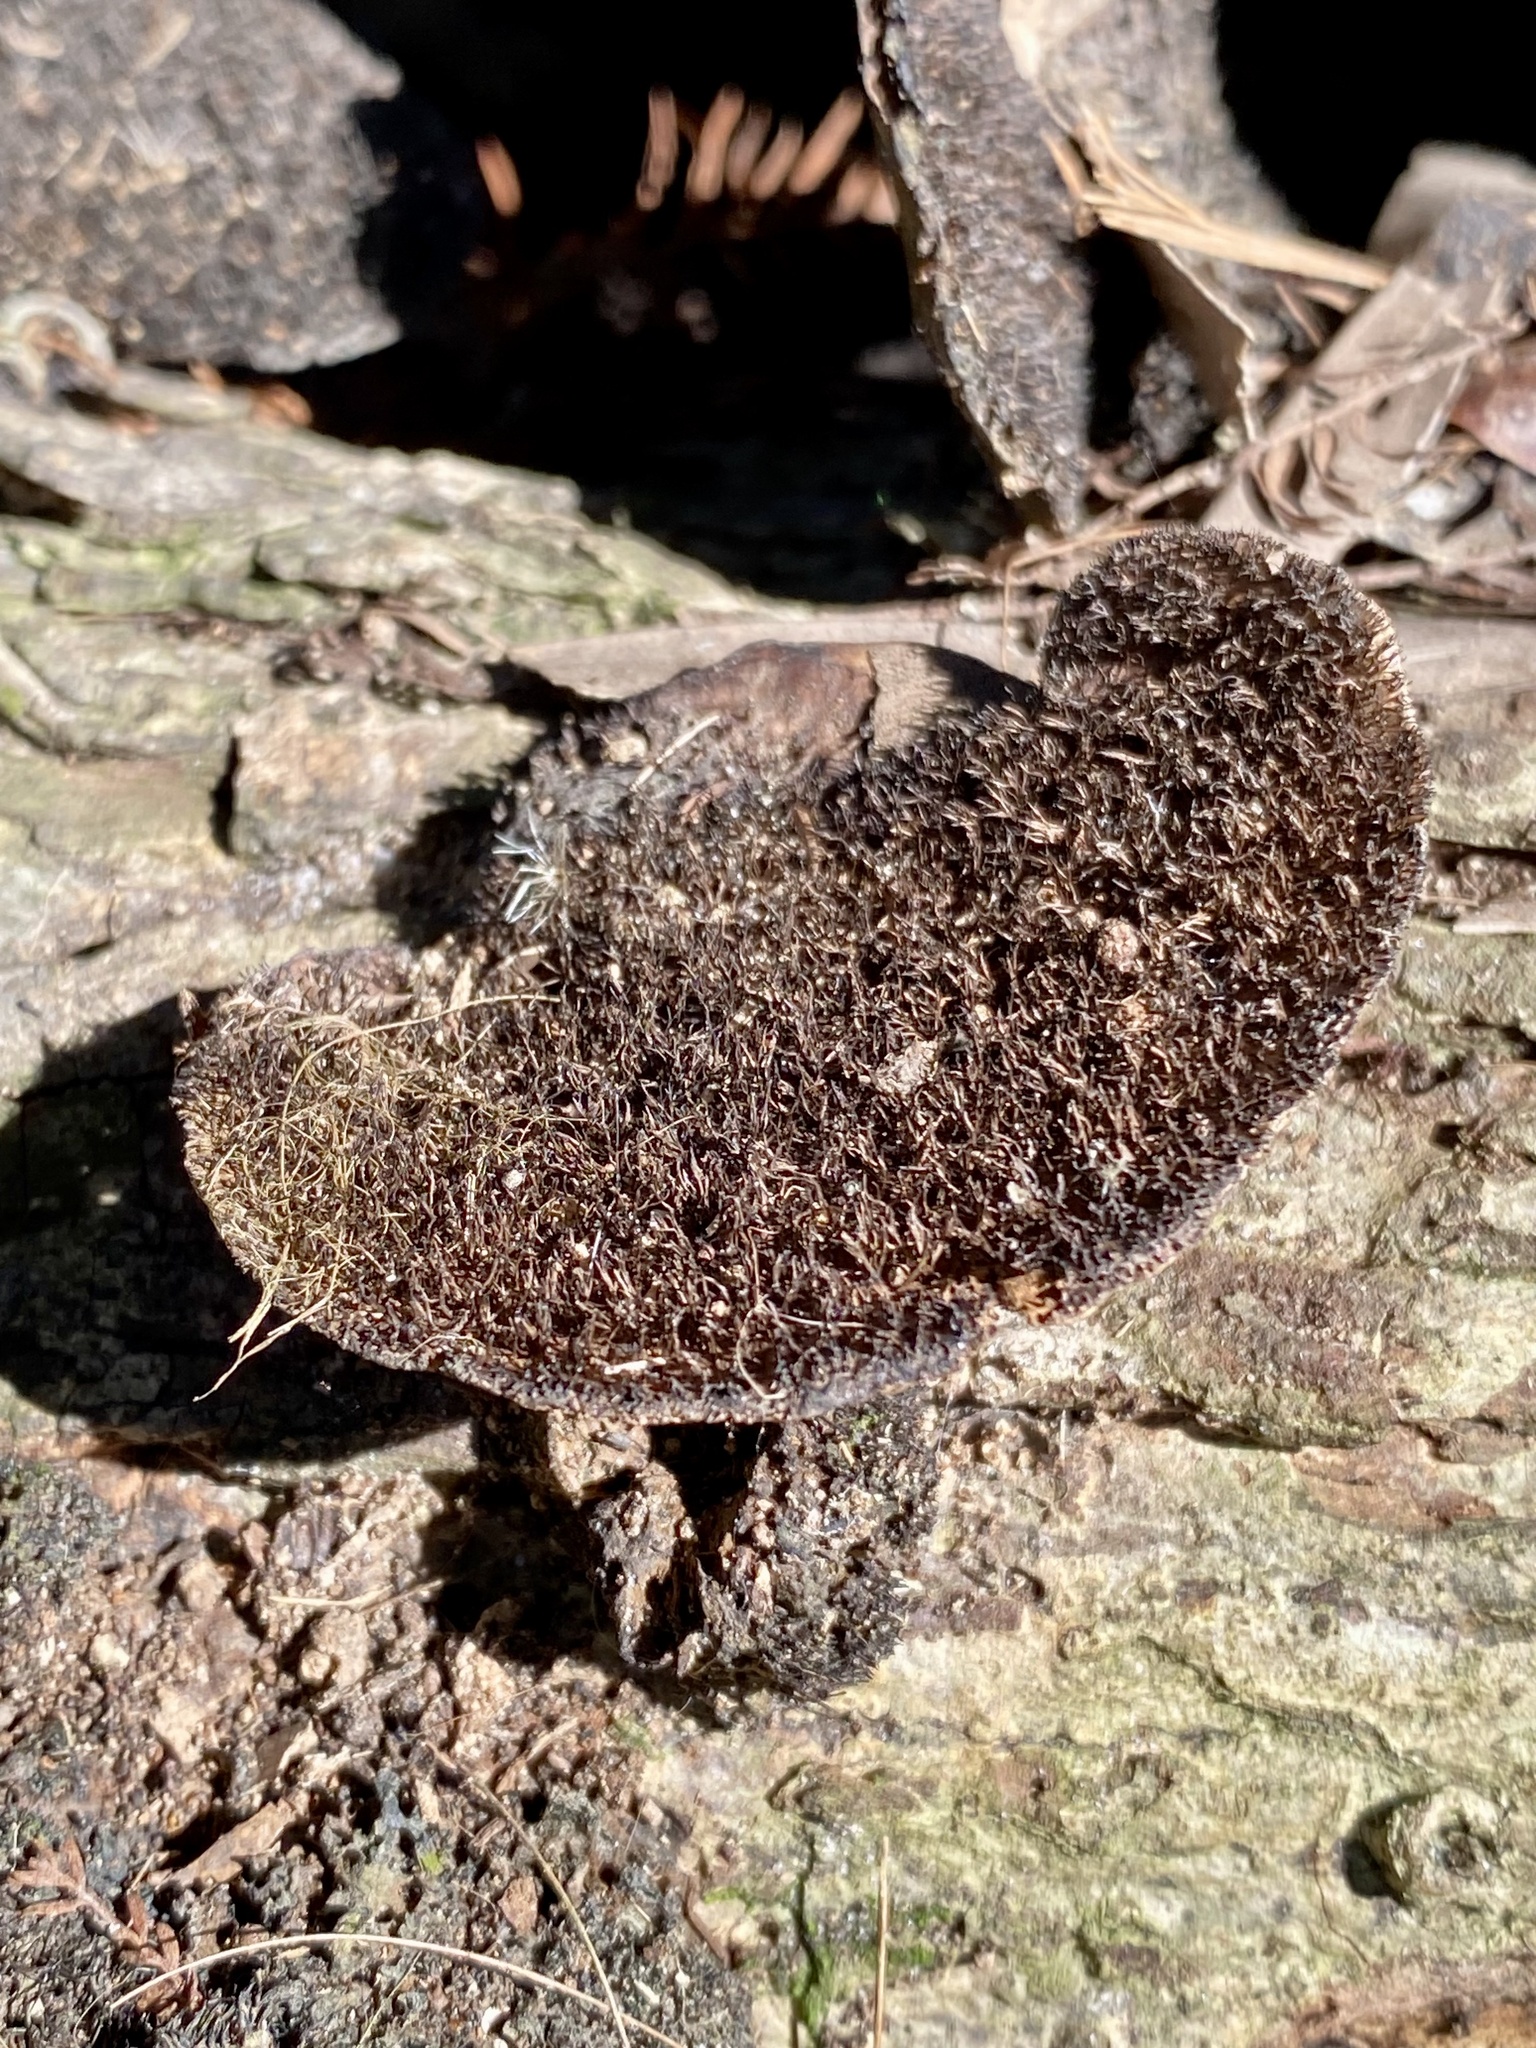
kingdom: Fungi
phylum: Basidiomycota
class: Agaricomycetes
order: Polyporales
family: Cerrenaceae
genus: Cerrena
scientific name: Cerrena hydnoides
